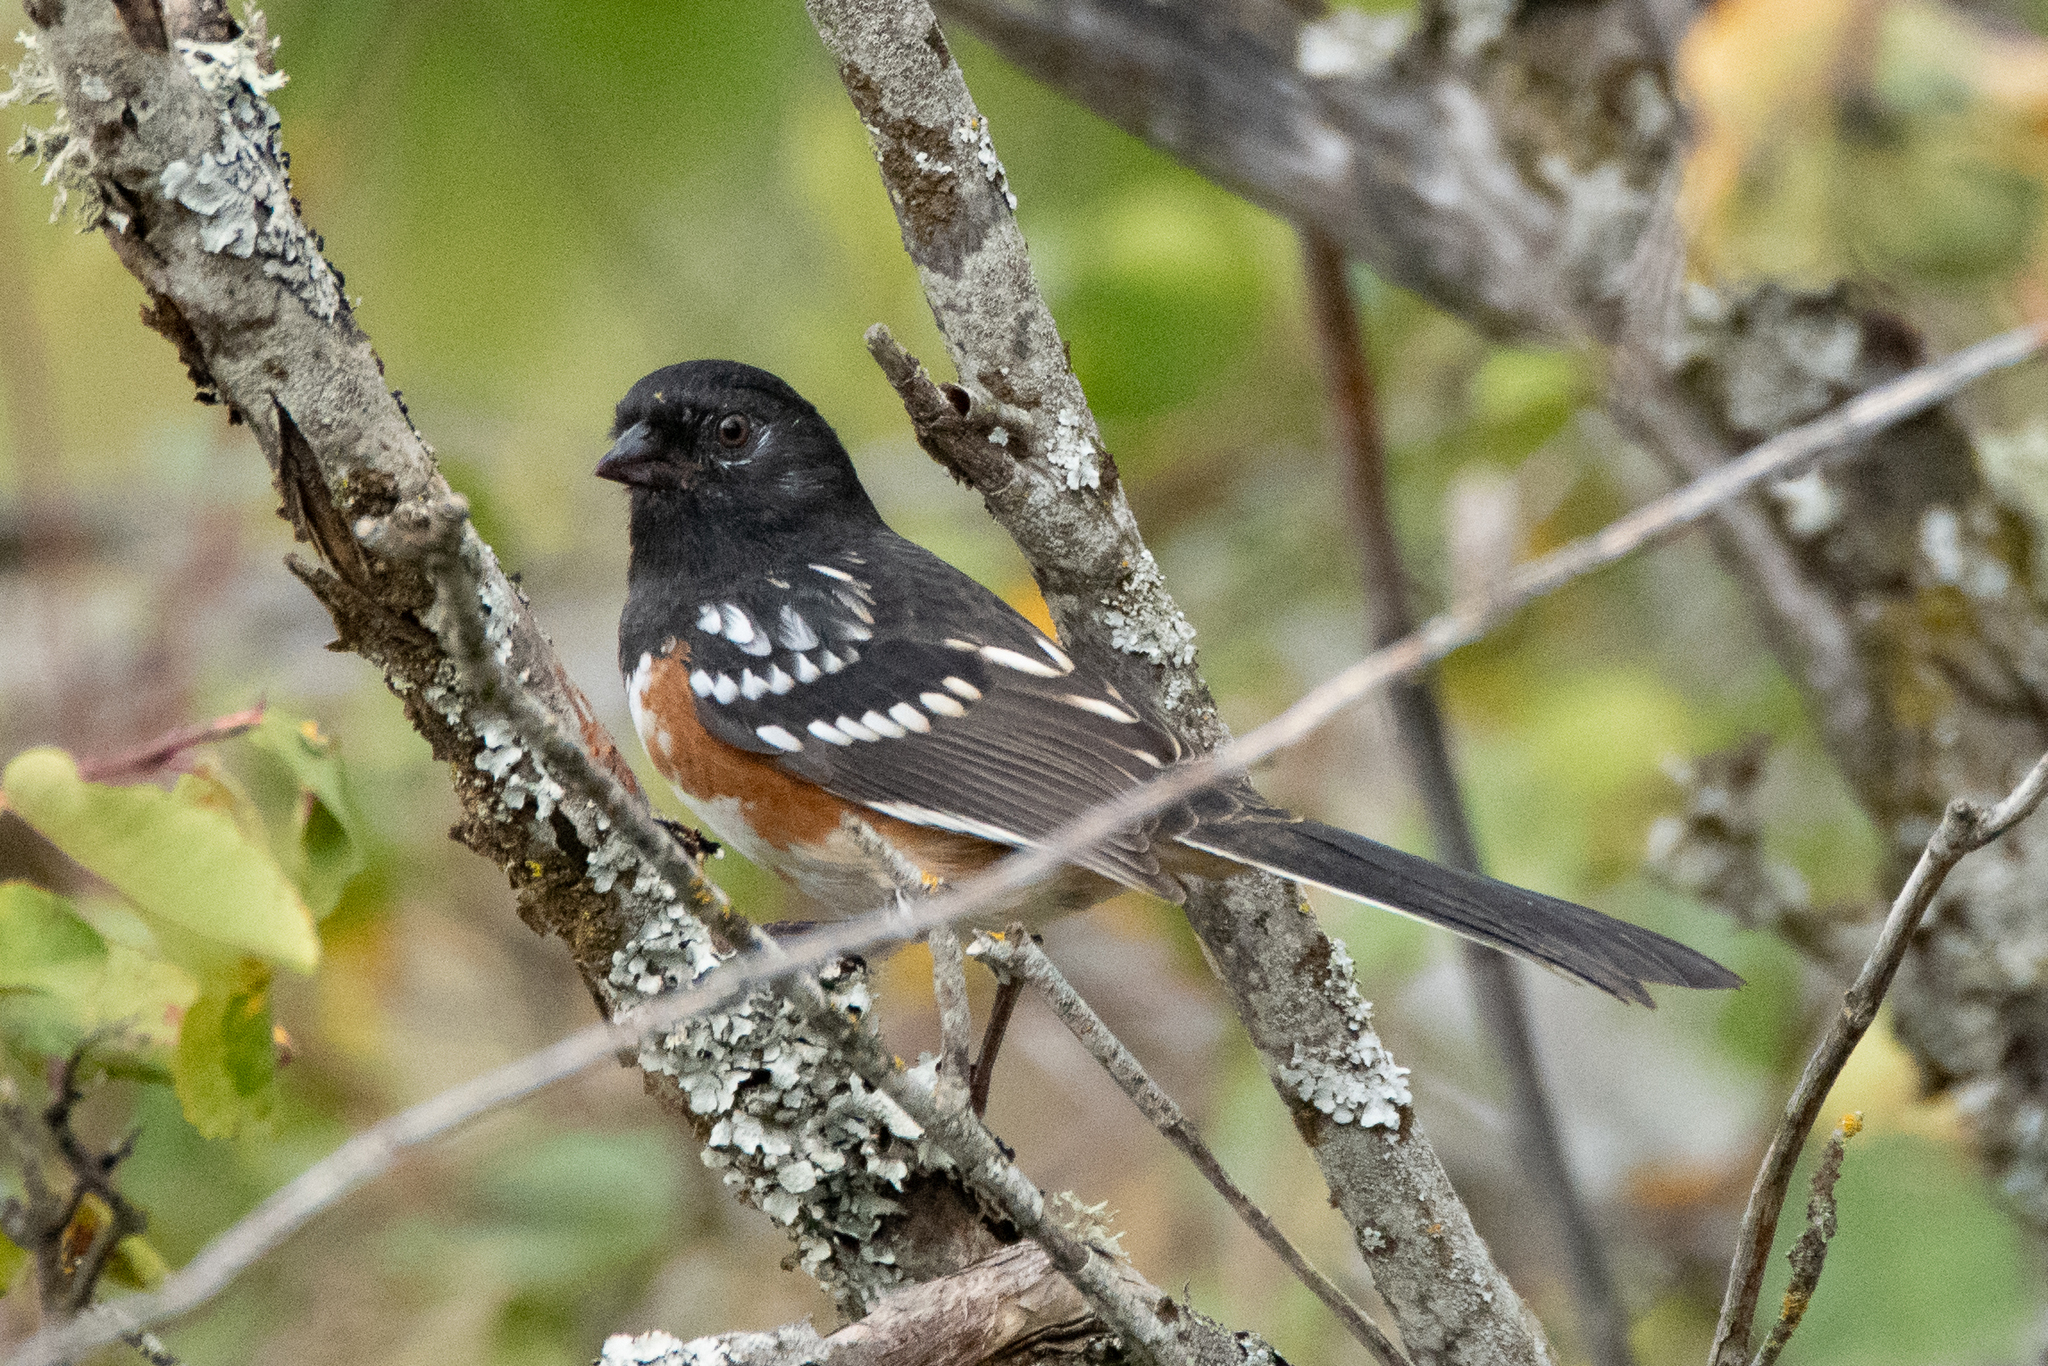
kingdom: Animalia
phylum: Chordata
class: Aves
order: Passeriformes
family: Passerellidae
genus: Pipilo
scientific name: Pipilo maculatus
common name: Spotted towhee
